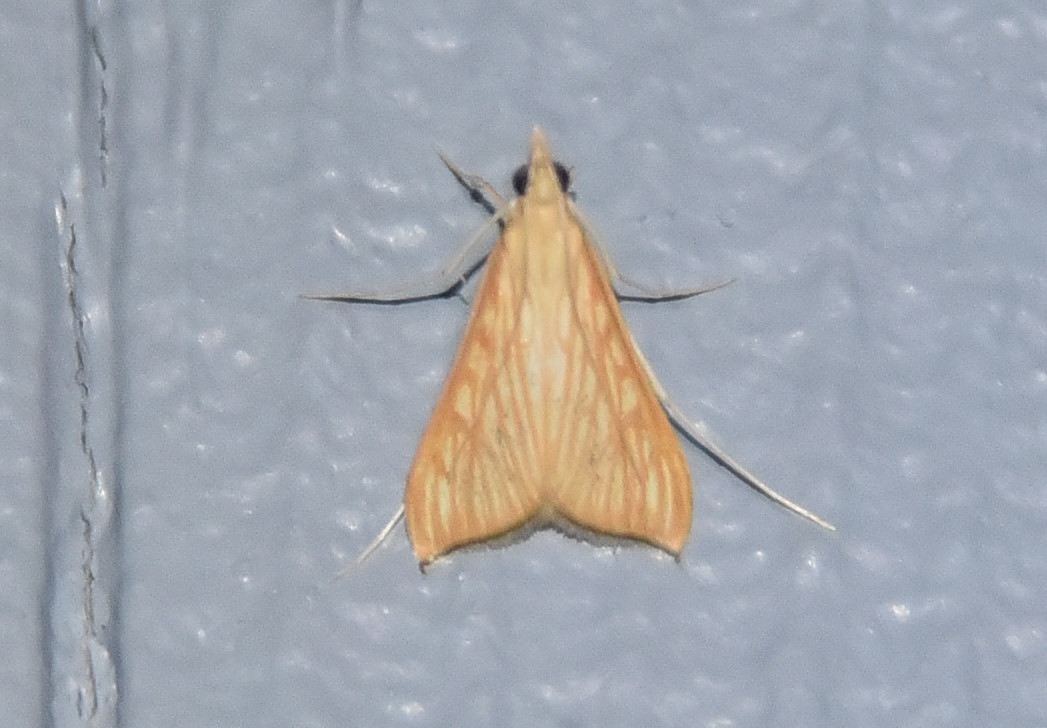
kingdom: Animalia
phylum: Arthropoda
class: Insecta
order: Lepidoptera
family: Crambidae
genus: Antigastra
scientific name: Antigastra catalaunalis
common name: Spanish dot
